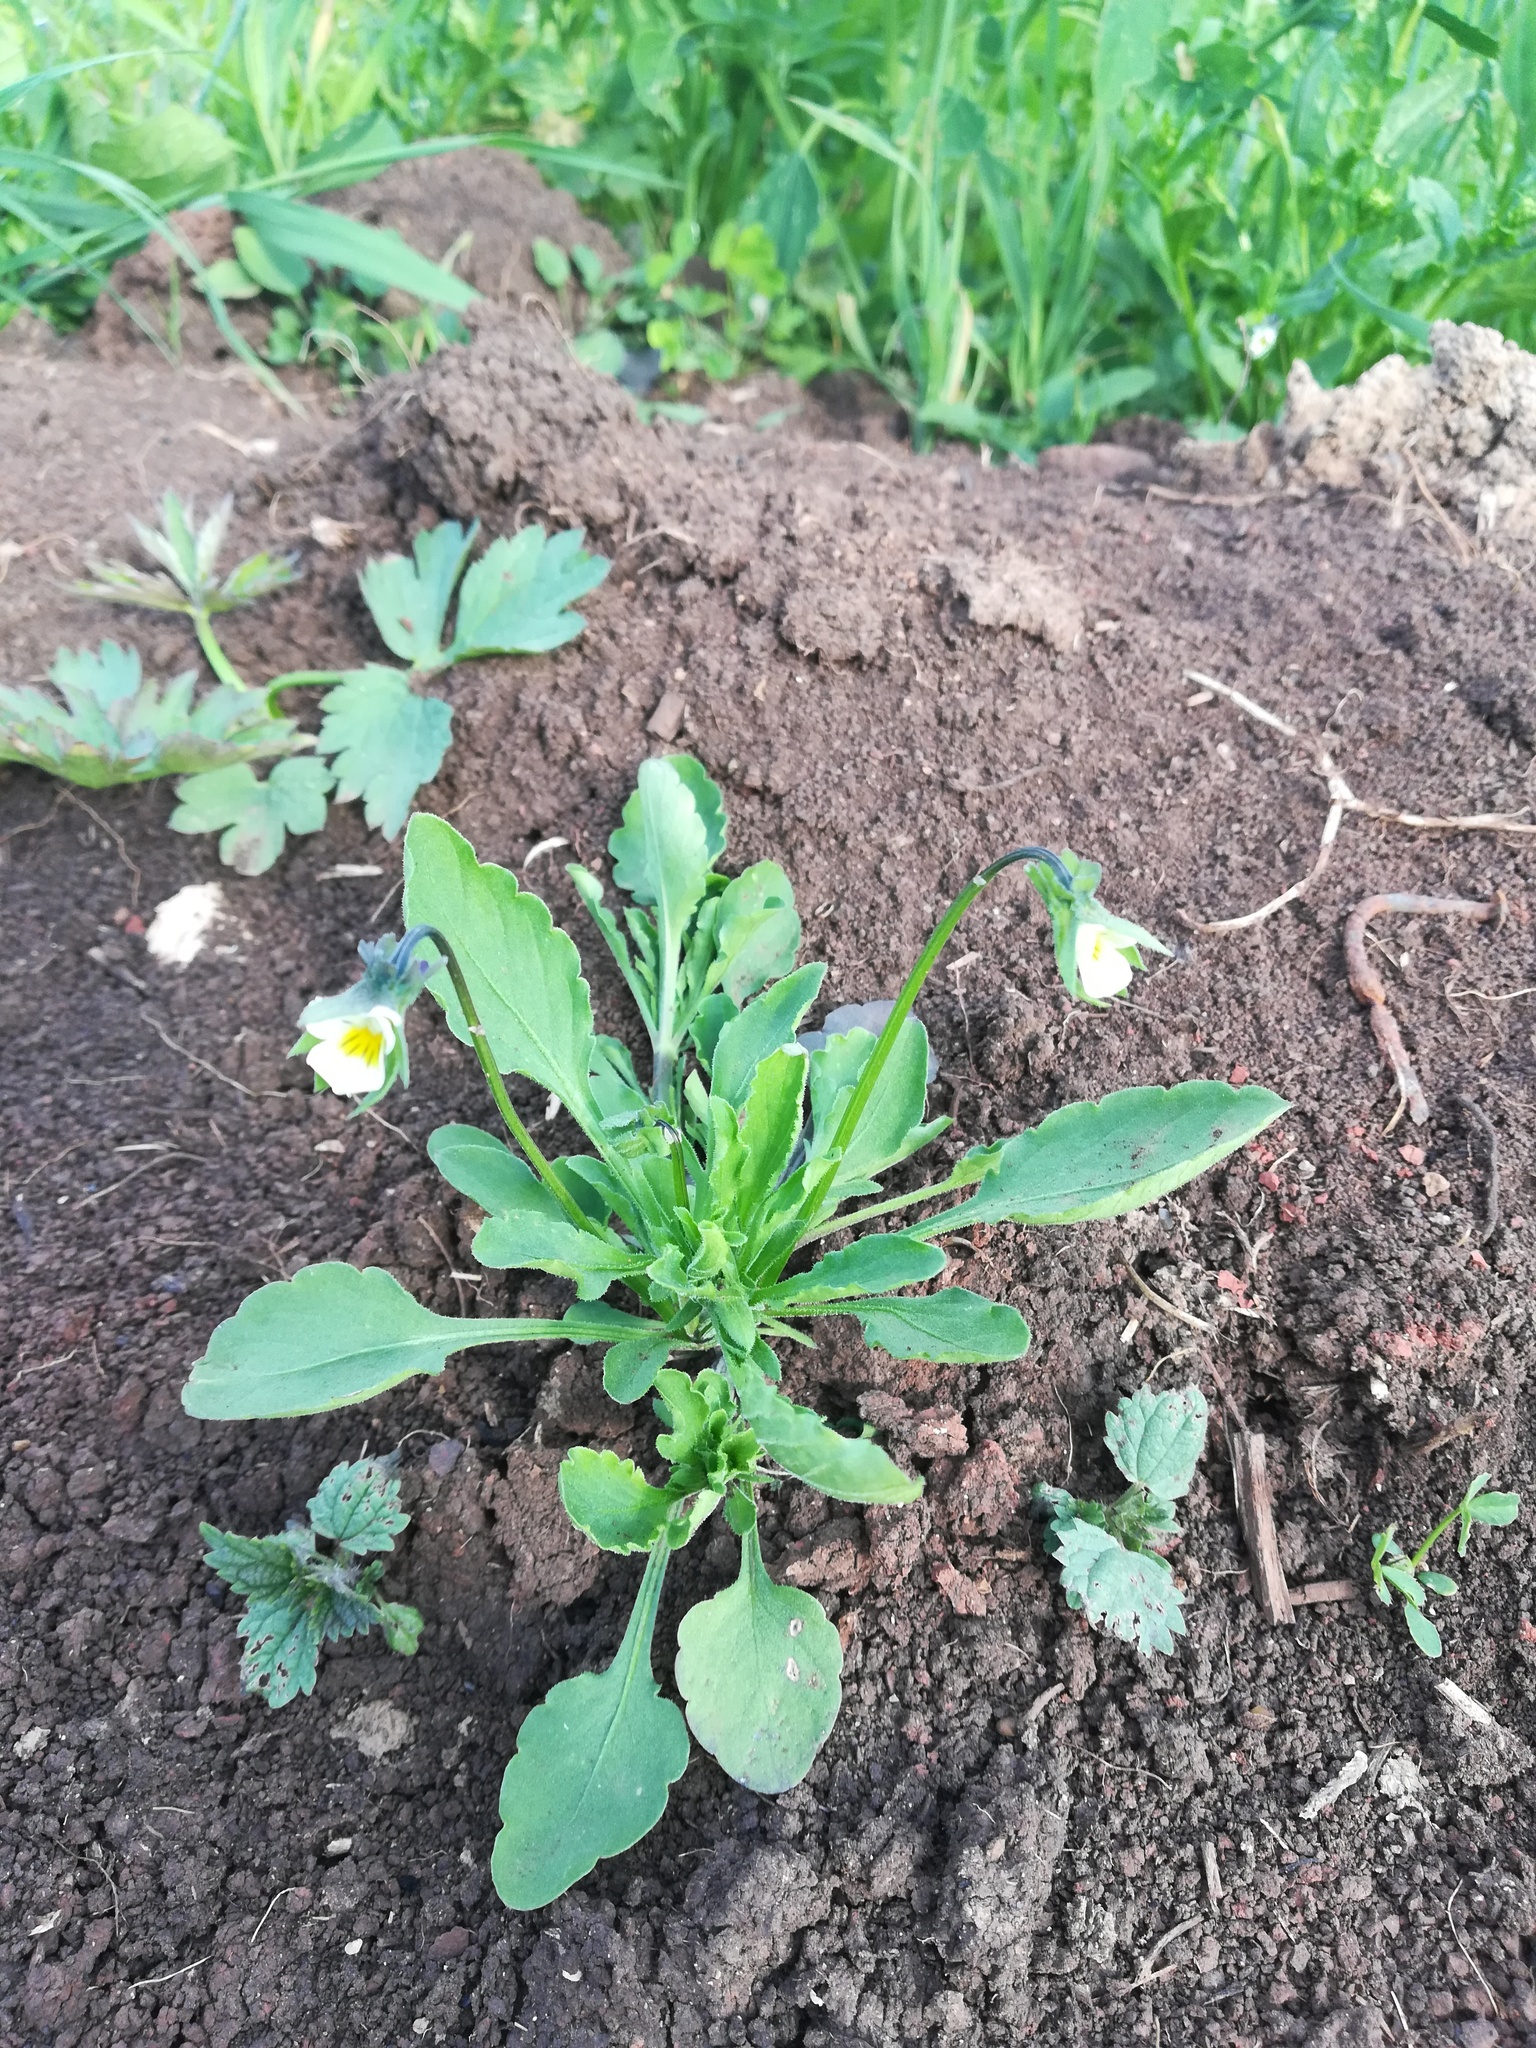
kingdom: Plantae
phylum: Tracheophyta
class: Magnoliopsida
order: Malpighiales
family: Violaceae
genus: Viola
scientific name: Viola arvensis
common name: Field pansy
